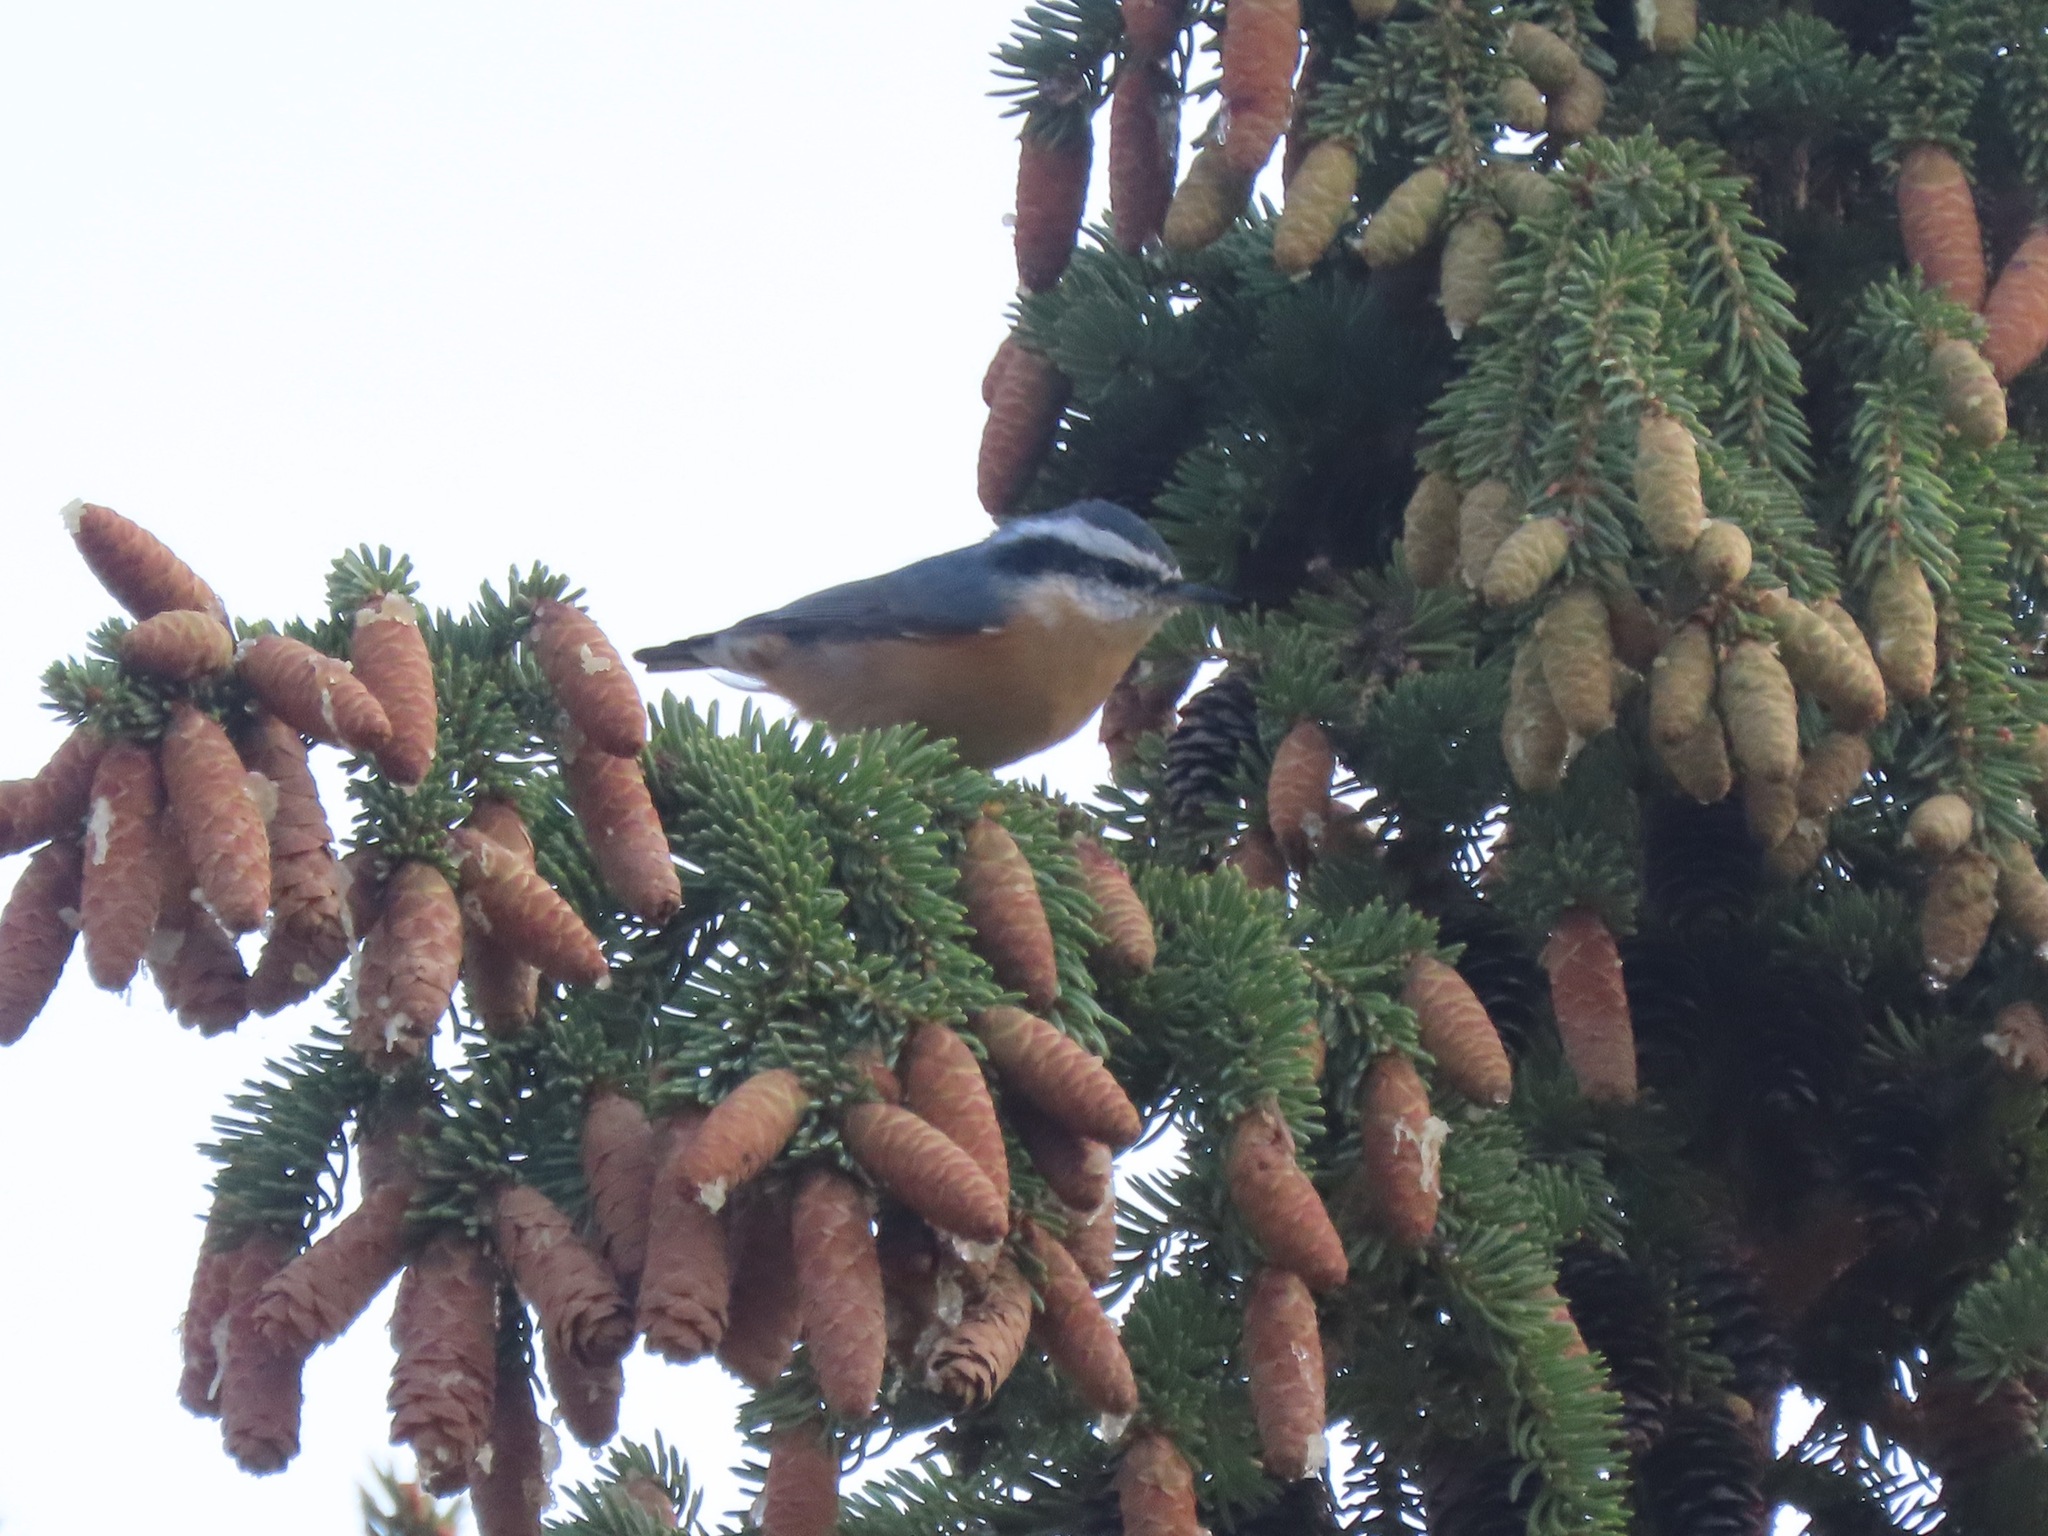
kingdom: Animalia
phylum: Chordata
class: Aves
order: Passeriformes
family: Sittidae
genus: Sitta
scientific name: Sitta canadensis
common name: Red-breasted nuthatch
